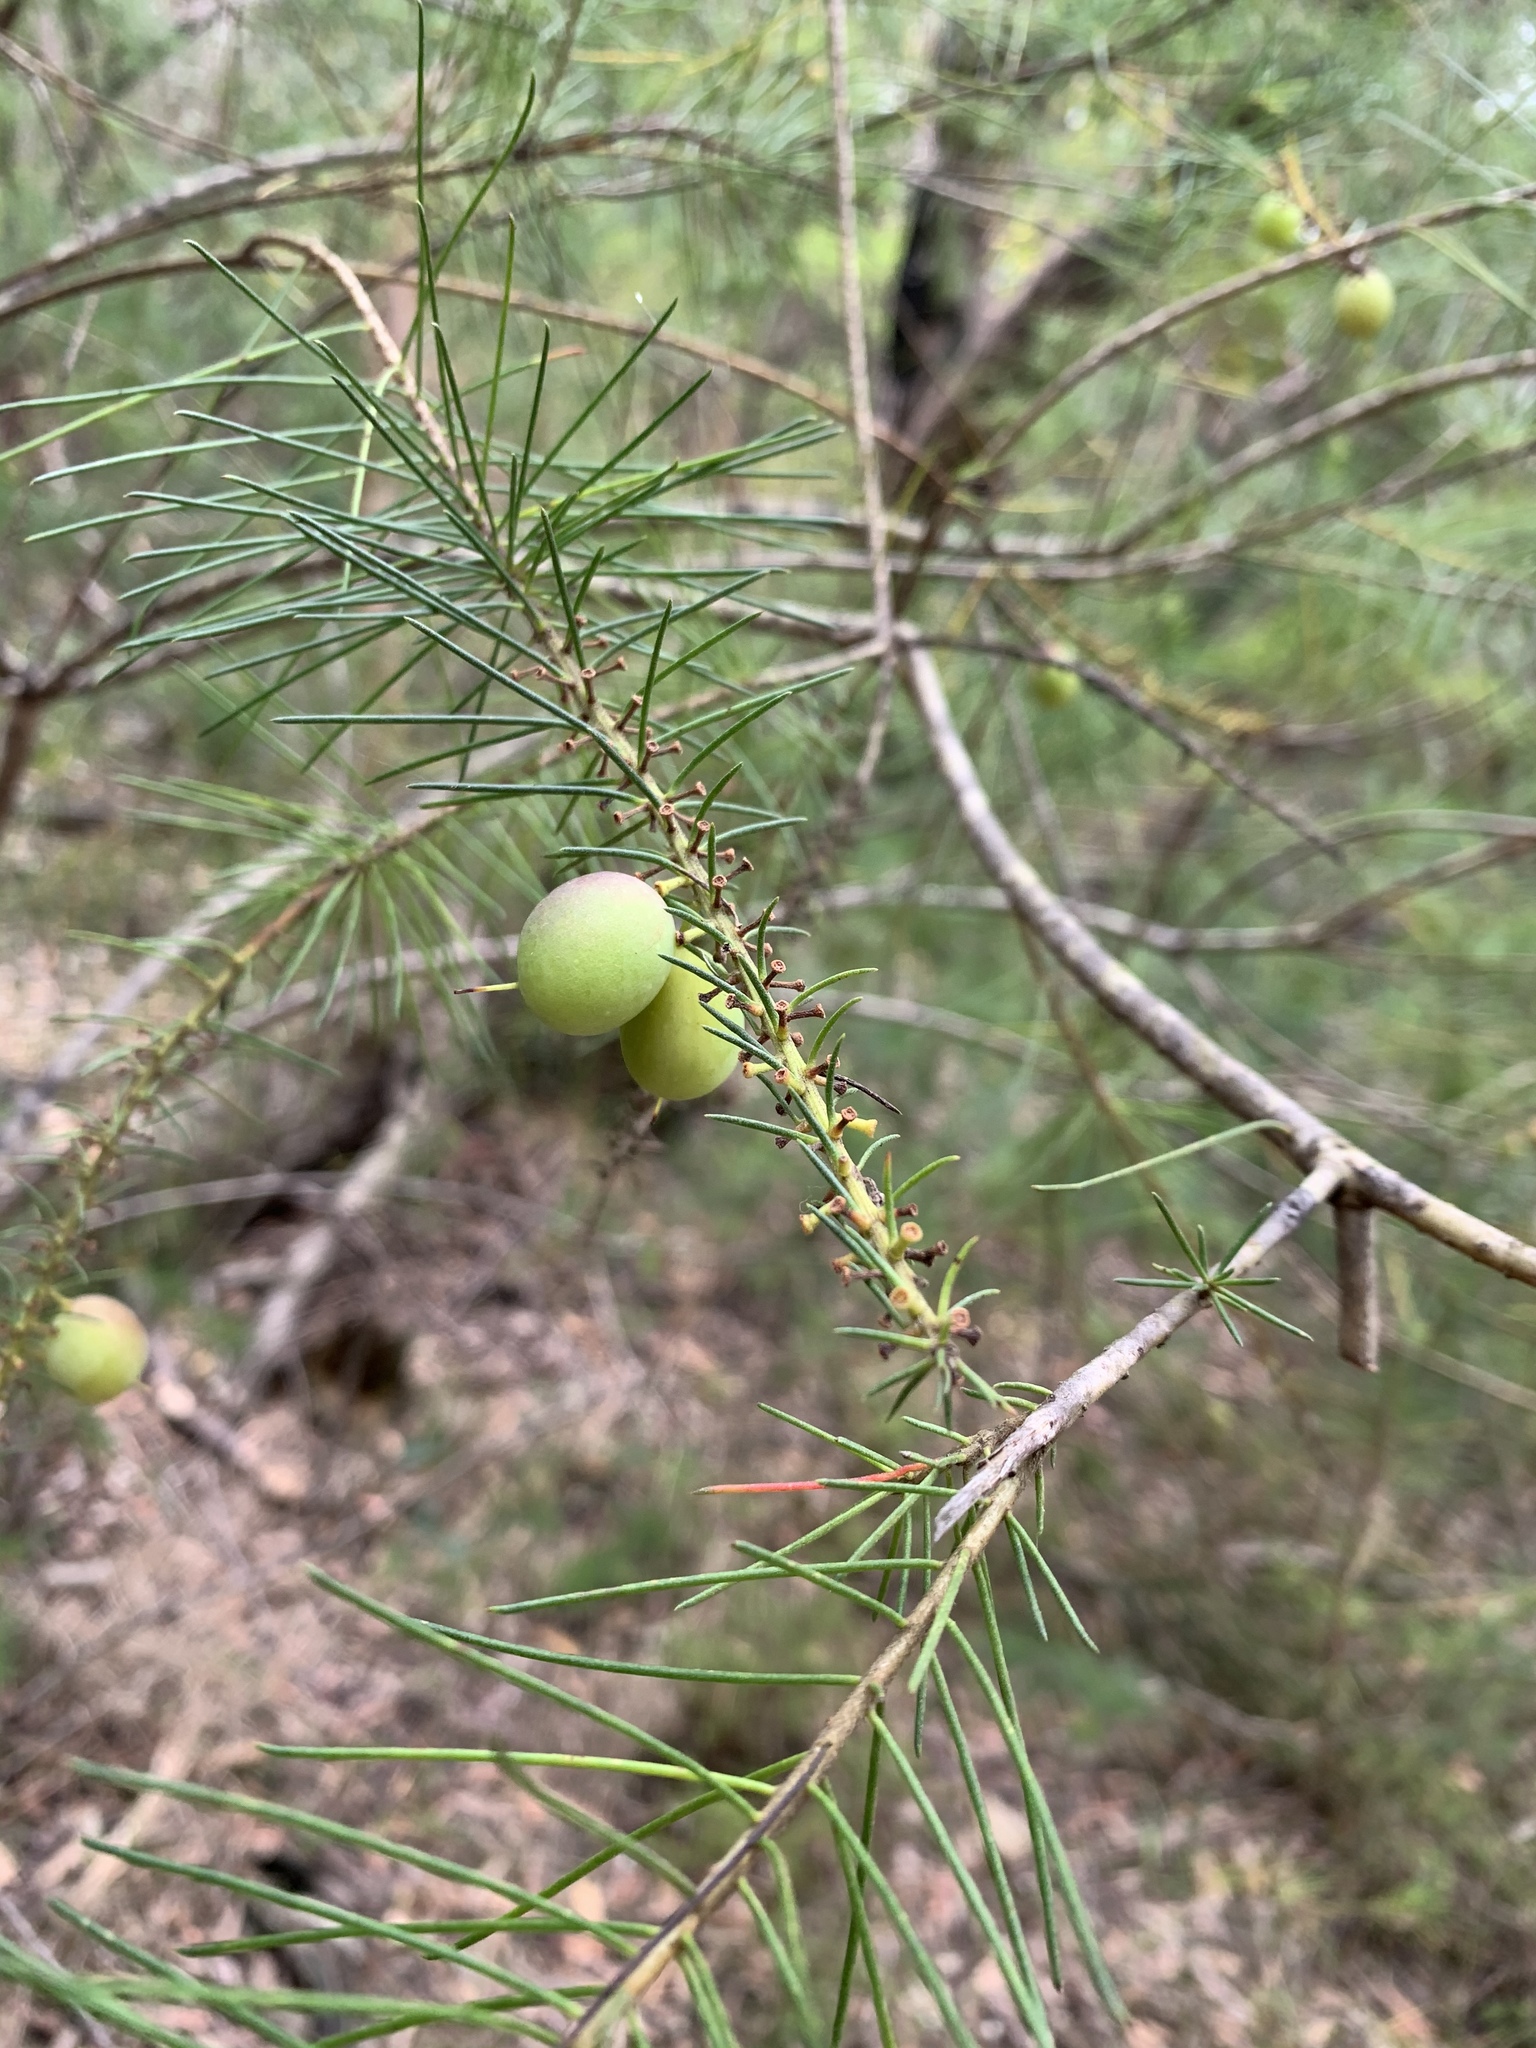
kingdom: Plantae
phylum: Tracheophyta
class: Magnoliopsida
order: Proteales
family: Proteaceae
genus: Persoonia
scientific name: Persoonia pinifolia
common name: Pine-leaf geebung
